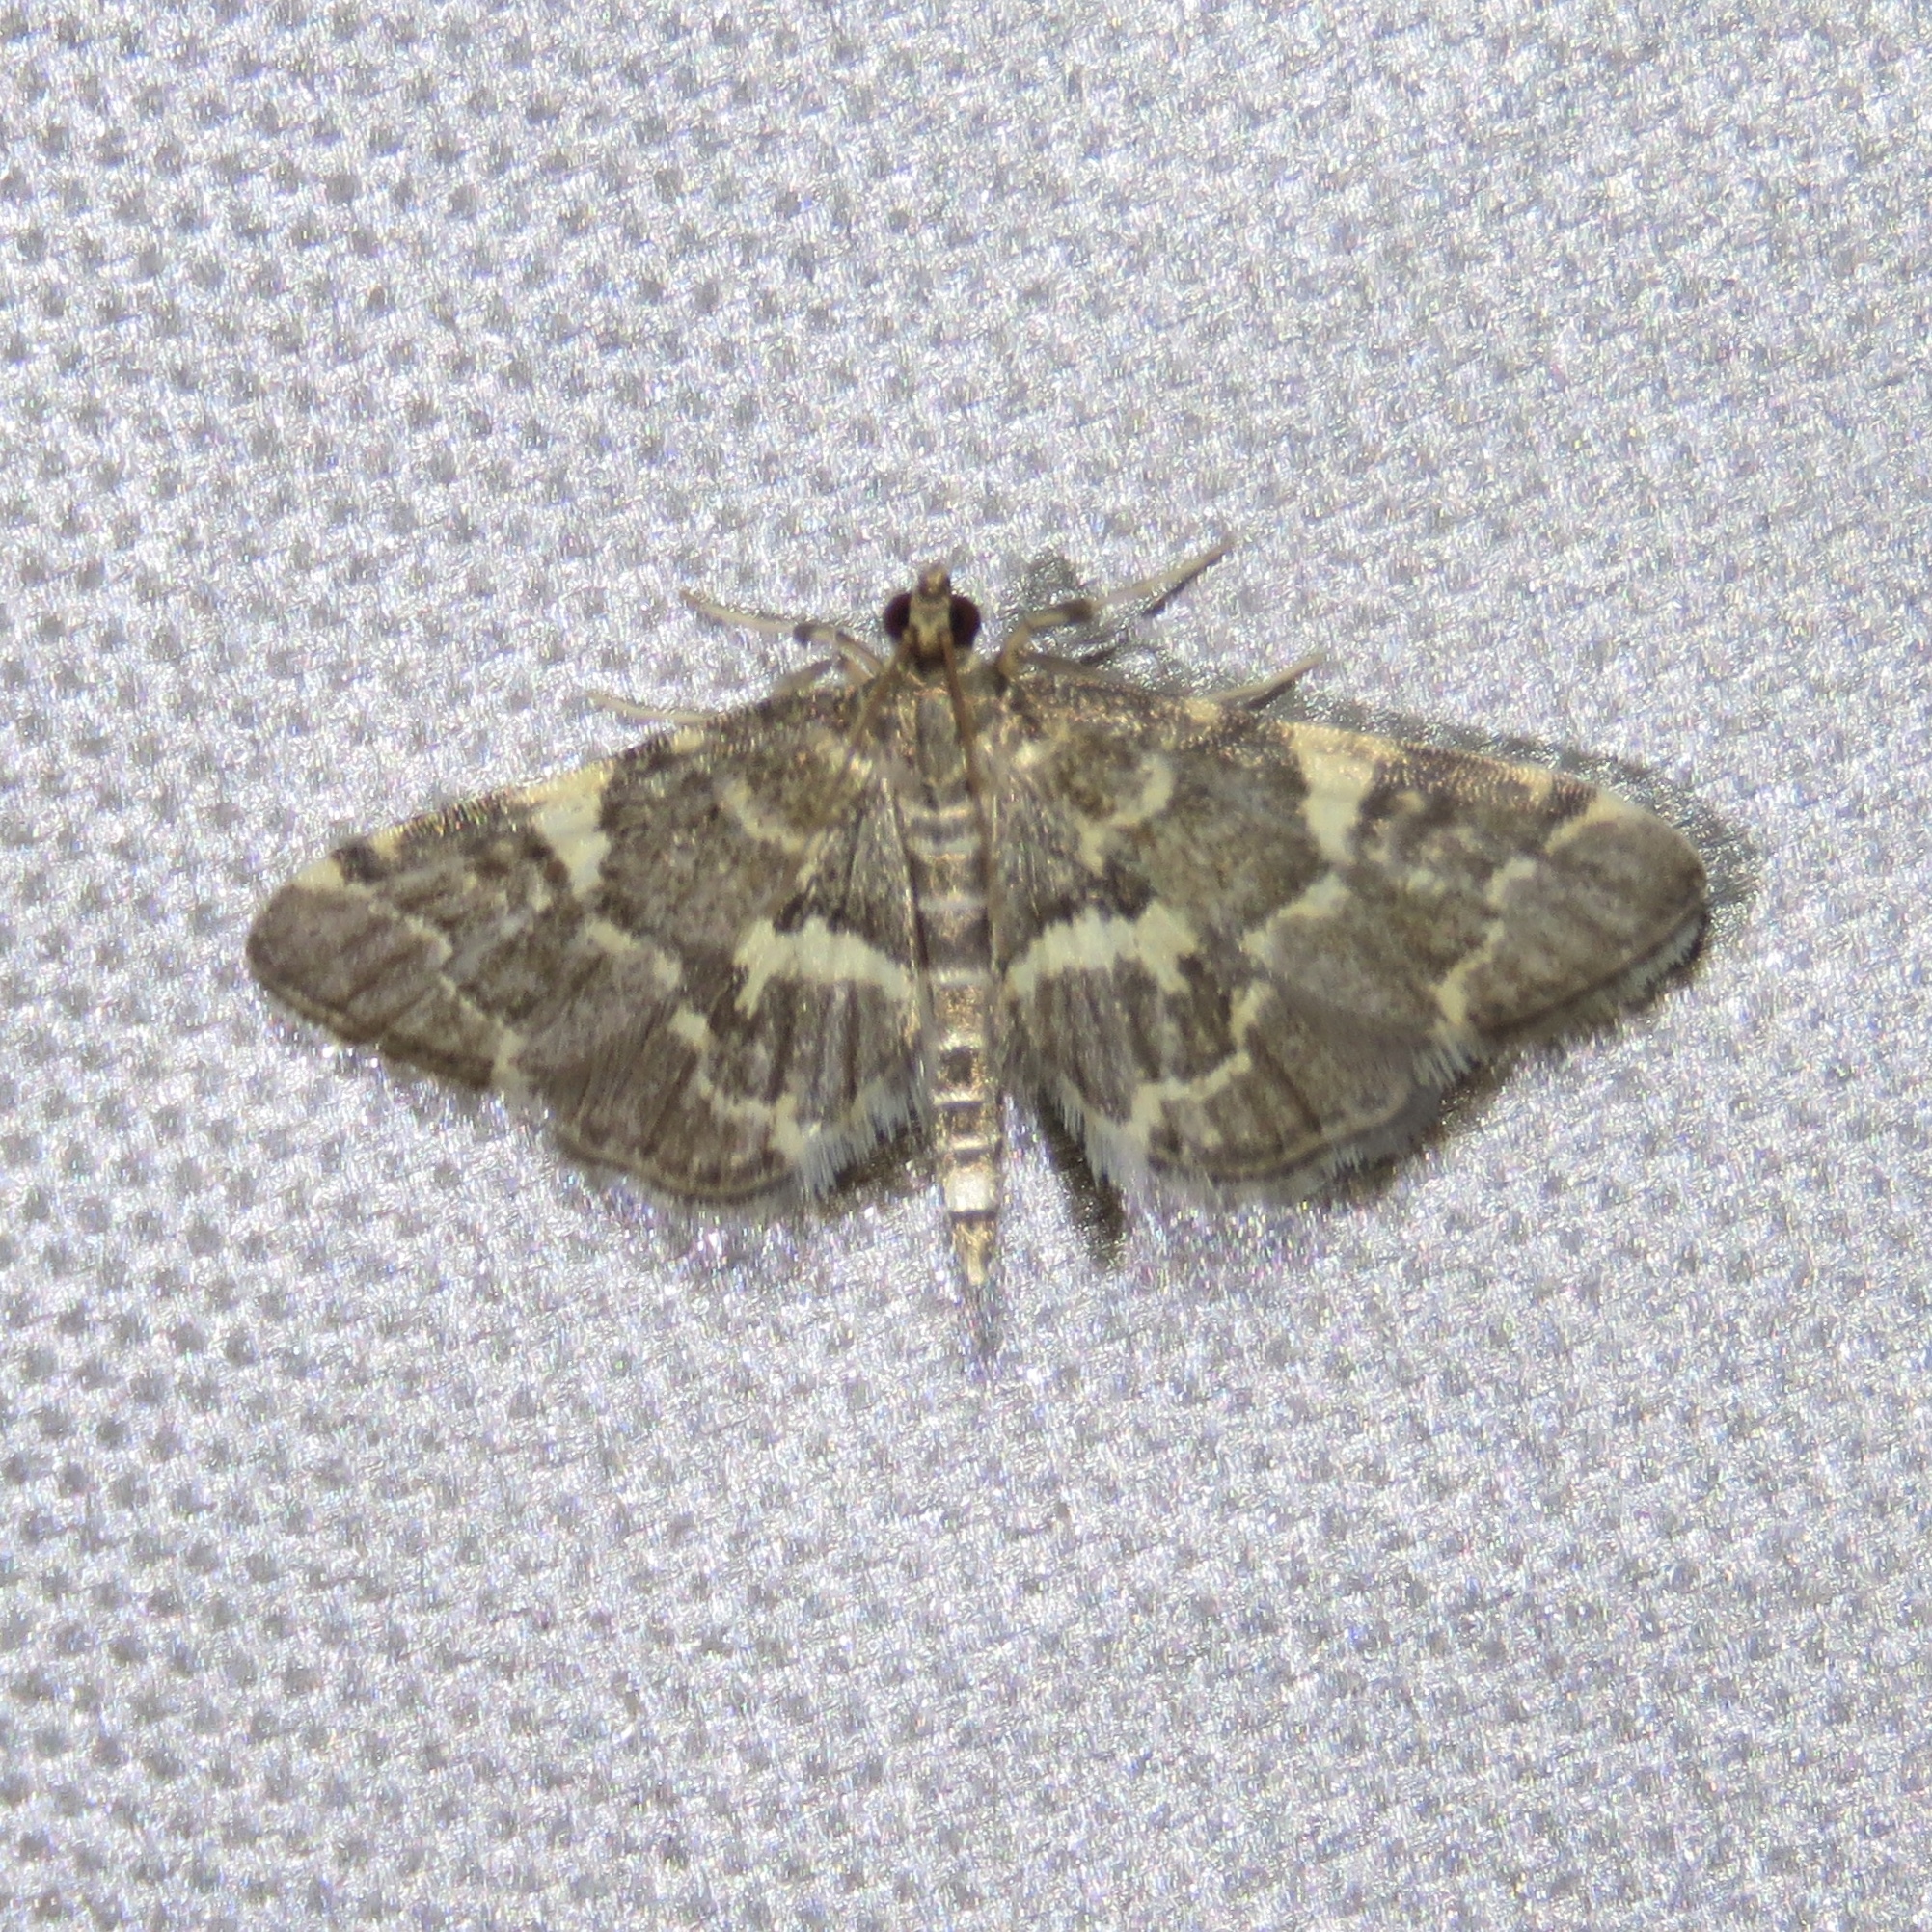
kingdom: Animalia
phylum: Arthropoda
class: Insecta
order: Lepidoptera
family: Crambidae
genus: Anageshna
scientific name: Anageshna primordialis
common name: Yellow-spotted webworm moth
